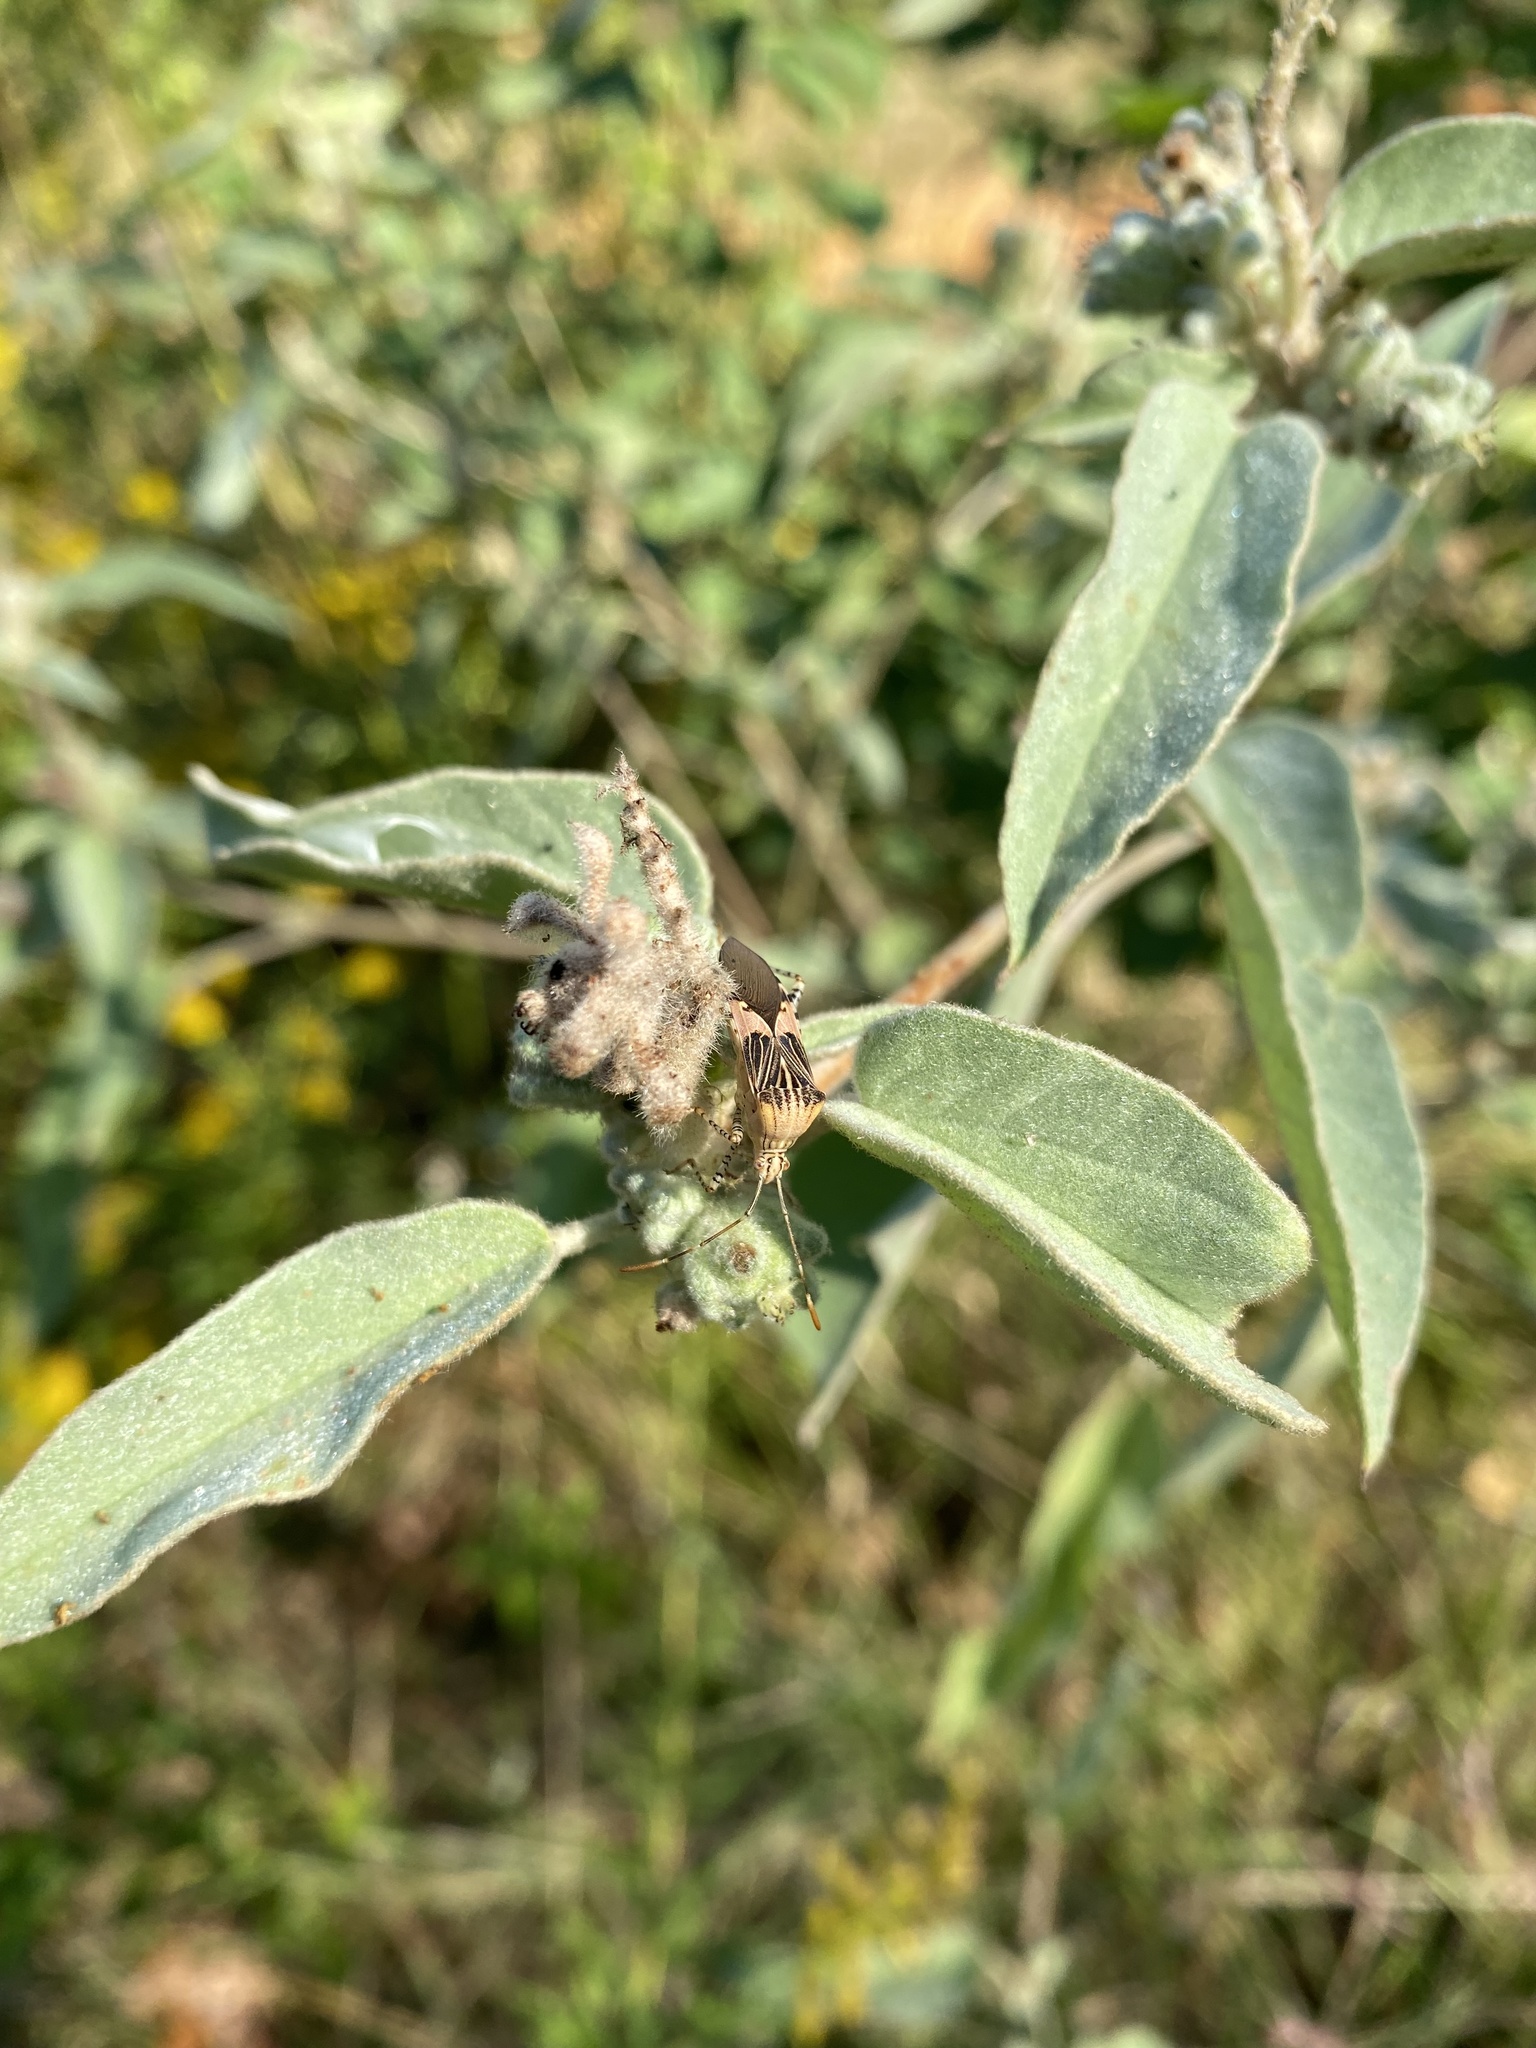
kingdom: Animalia
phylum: Arthropoda
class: Insecta
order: Hemiptera
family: Coreidae
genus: Hypselonotus
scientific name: Hypselonotus punctiventris
